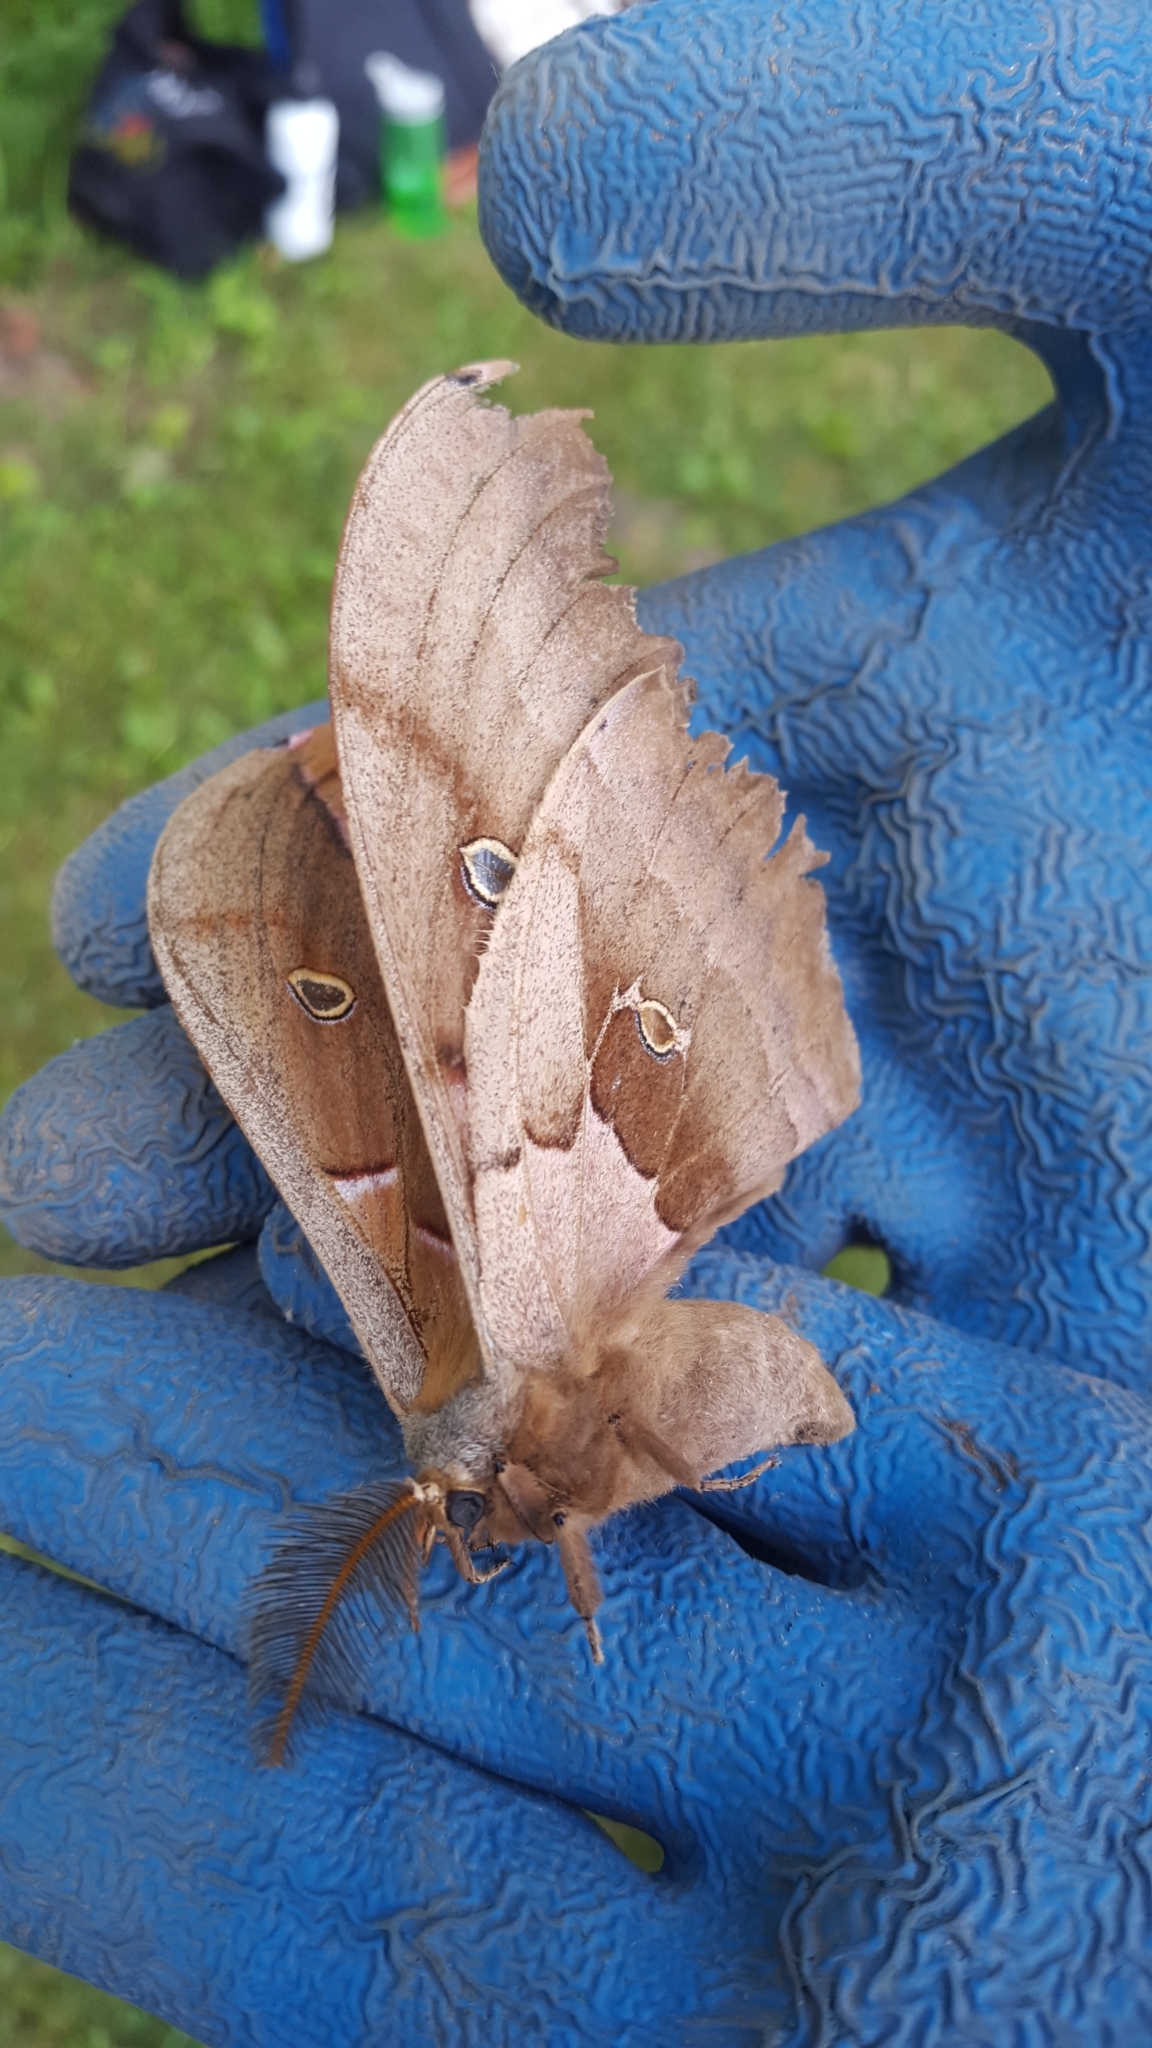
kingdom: Animalia
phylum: Arthropoda
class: Insecta
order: Lepidoptera
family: Saturniidae
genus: Antheraea
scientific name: Antheraea polyphemus
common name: Polyphemus moth
